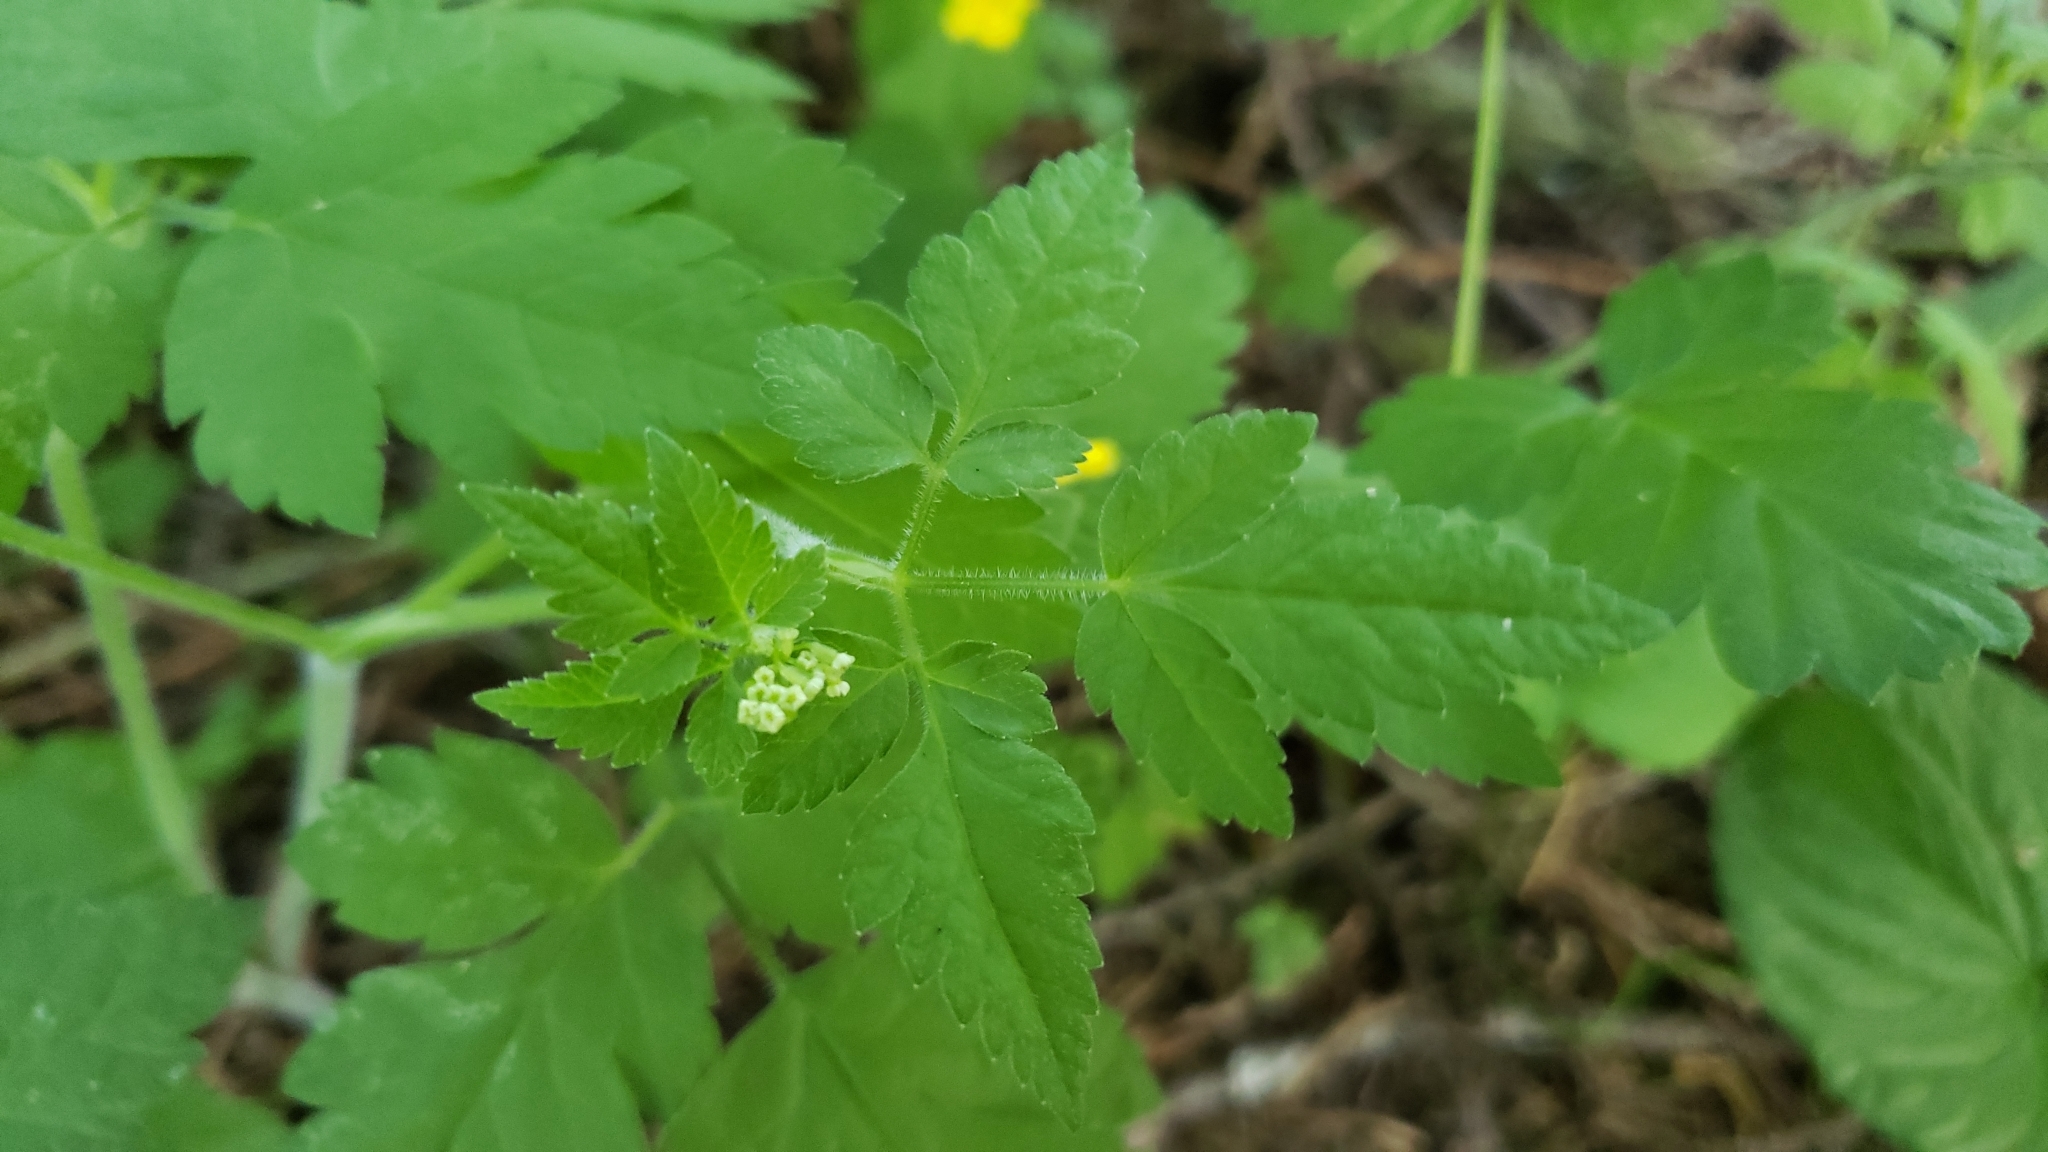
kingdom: Plantae
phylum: Tracheophyta
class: Magnoliopsida
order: Apiales
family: Apiaceae
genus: Osmorhiza
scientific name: Osmorhiza berteroi
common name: Mountain sweet cicely
